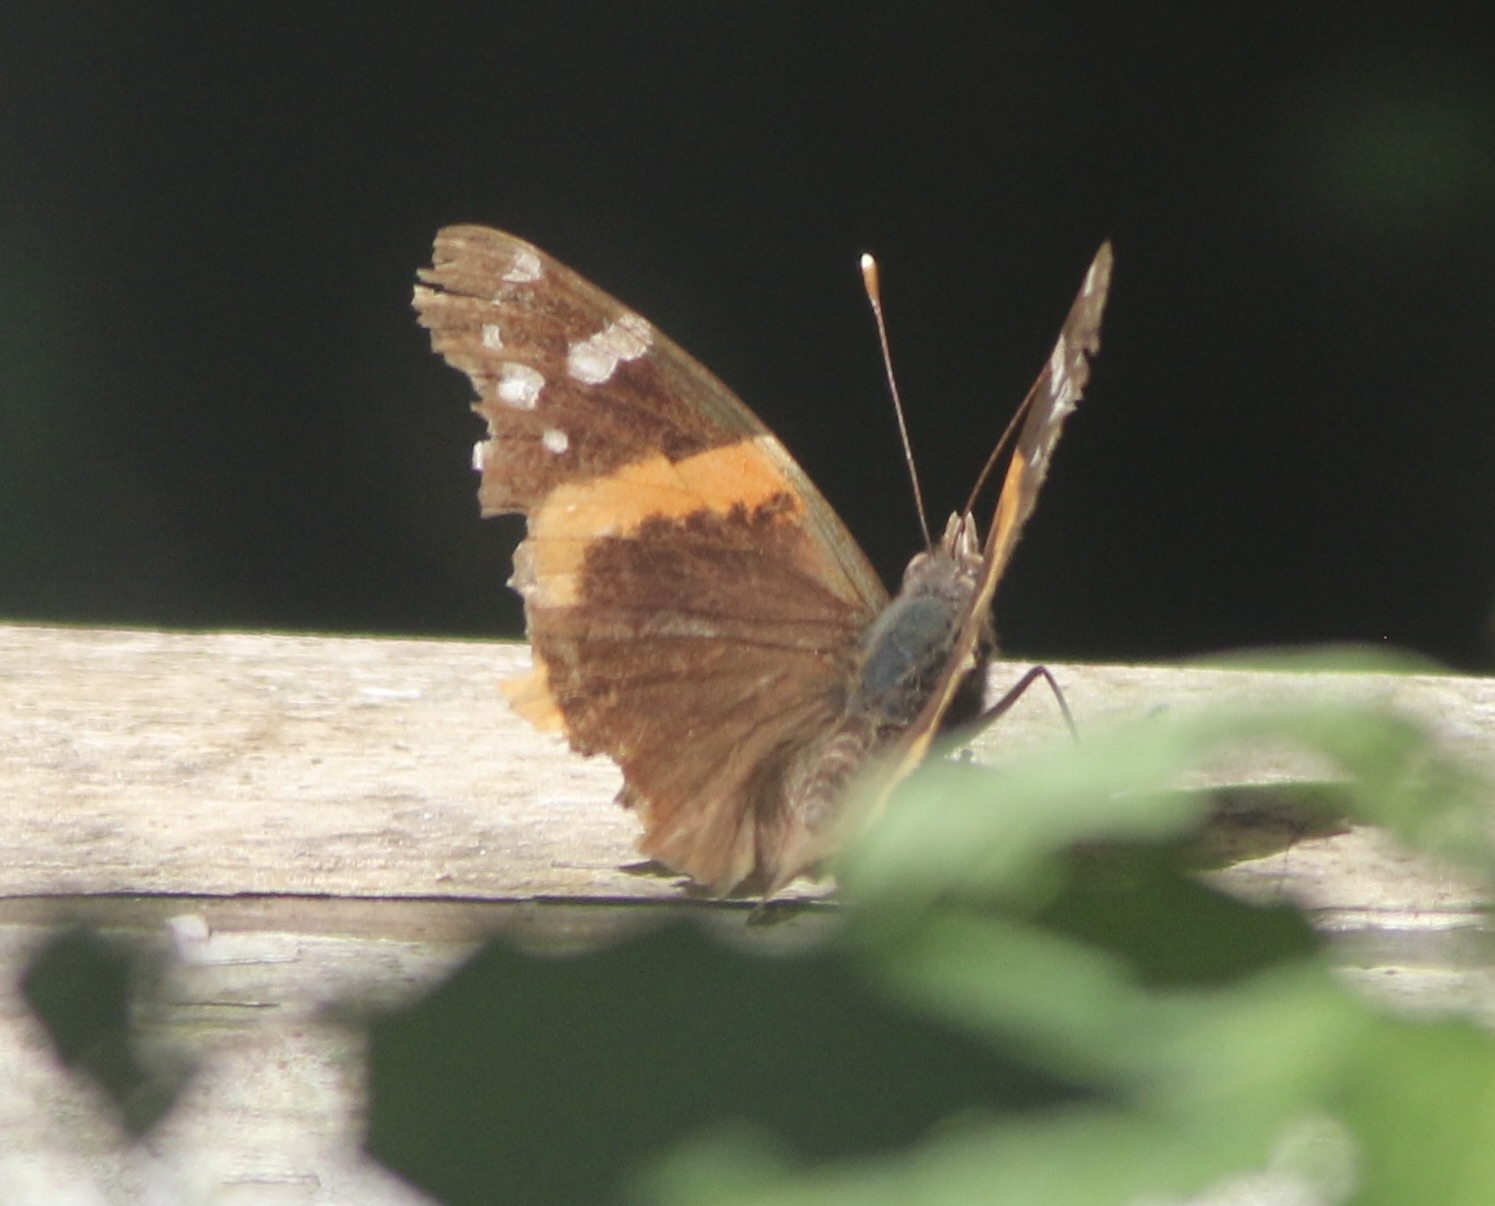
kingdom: Animalia
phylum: Arthropoda
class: Insecta
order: Lepidoptera
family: Nymphalidae
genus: Vanessa
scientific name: Vanessa atalanta
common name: Red admiral
